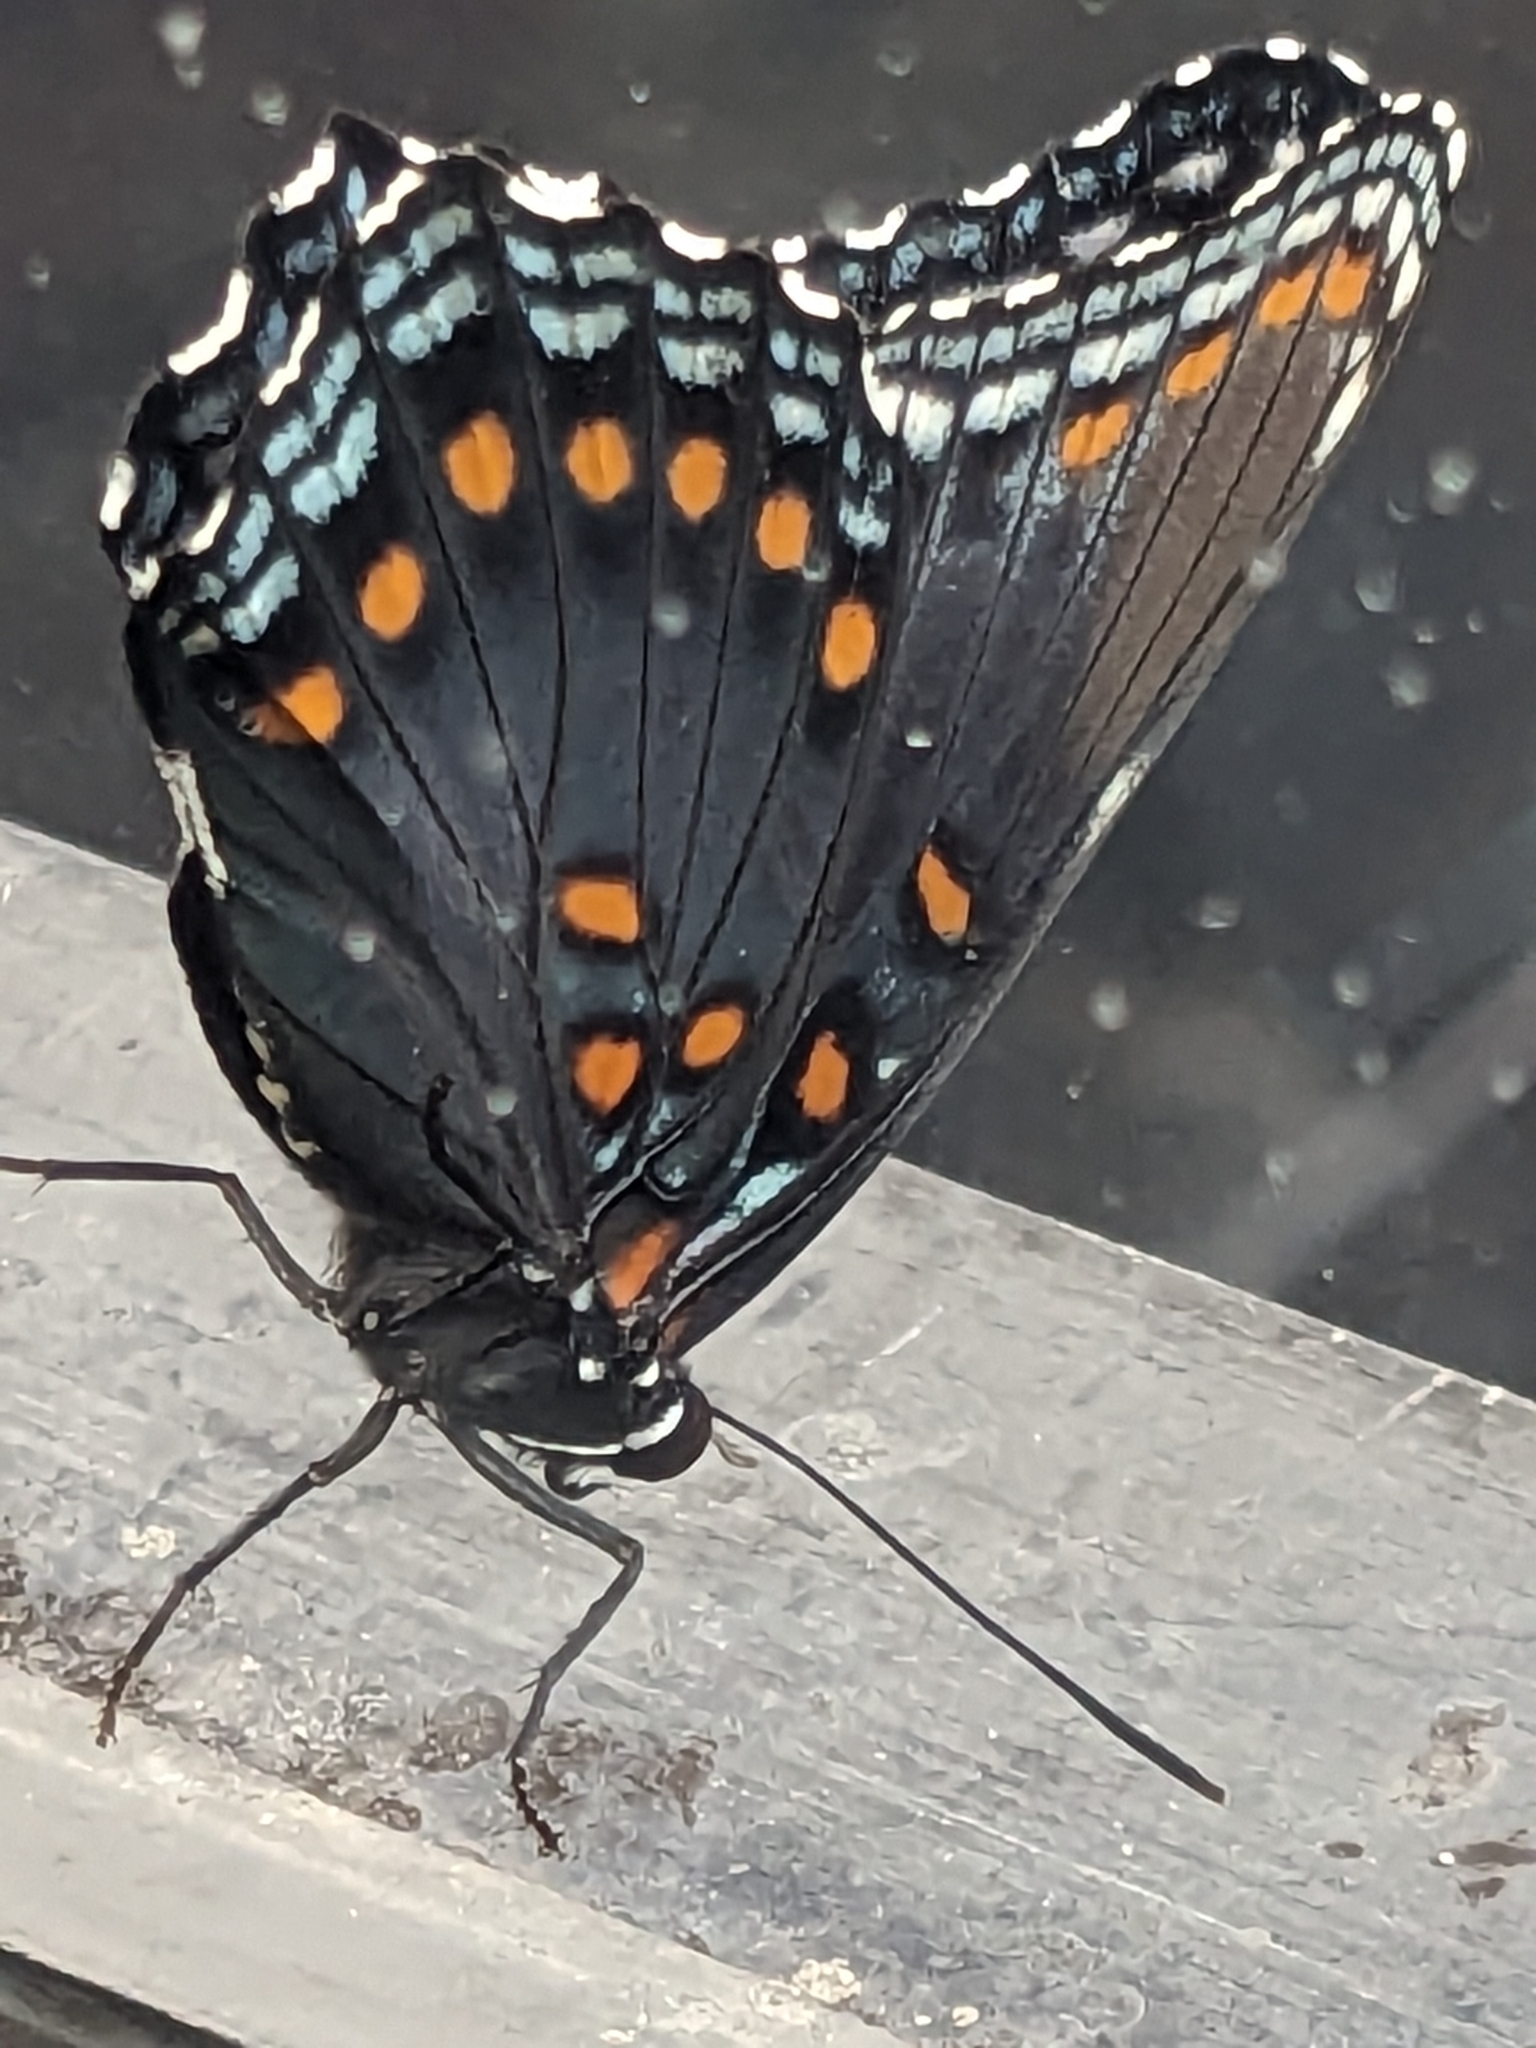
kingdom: Animalia
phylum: Arthropoda
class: Insecta
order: Lepidoptera
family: Nymphalidae
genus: Limenitis
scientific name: Limenitis arthemis
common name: Red-spotted admiral
